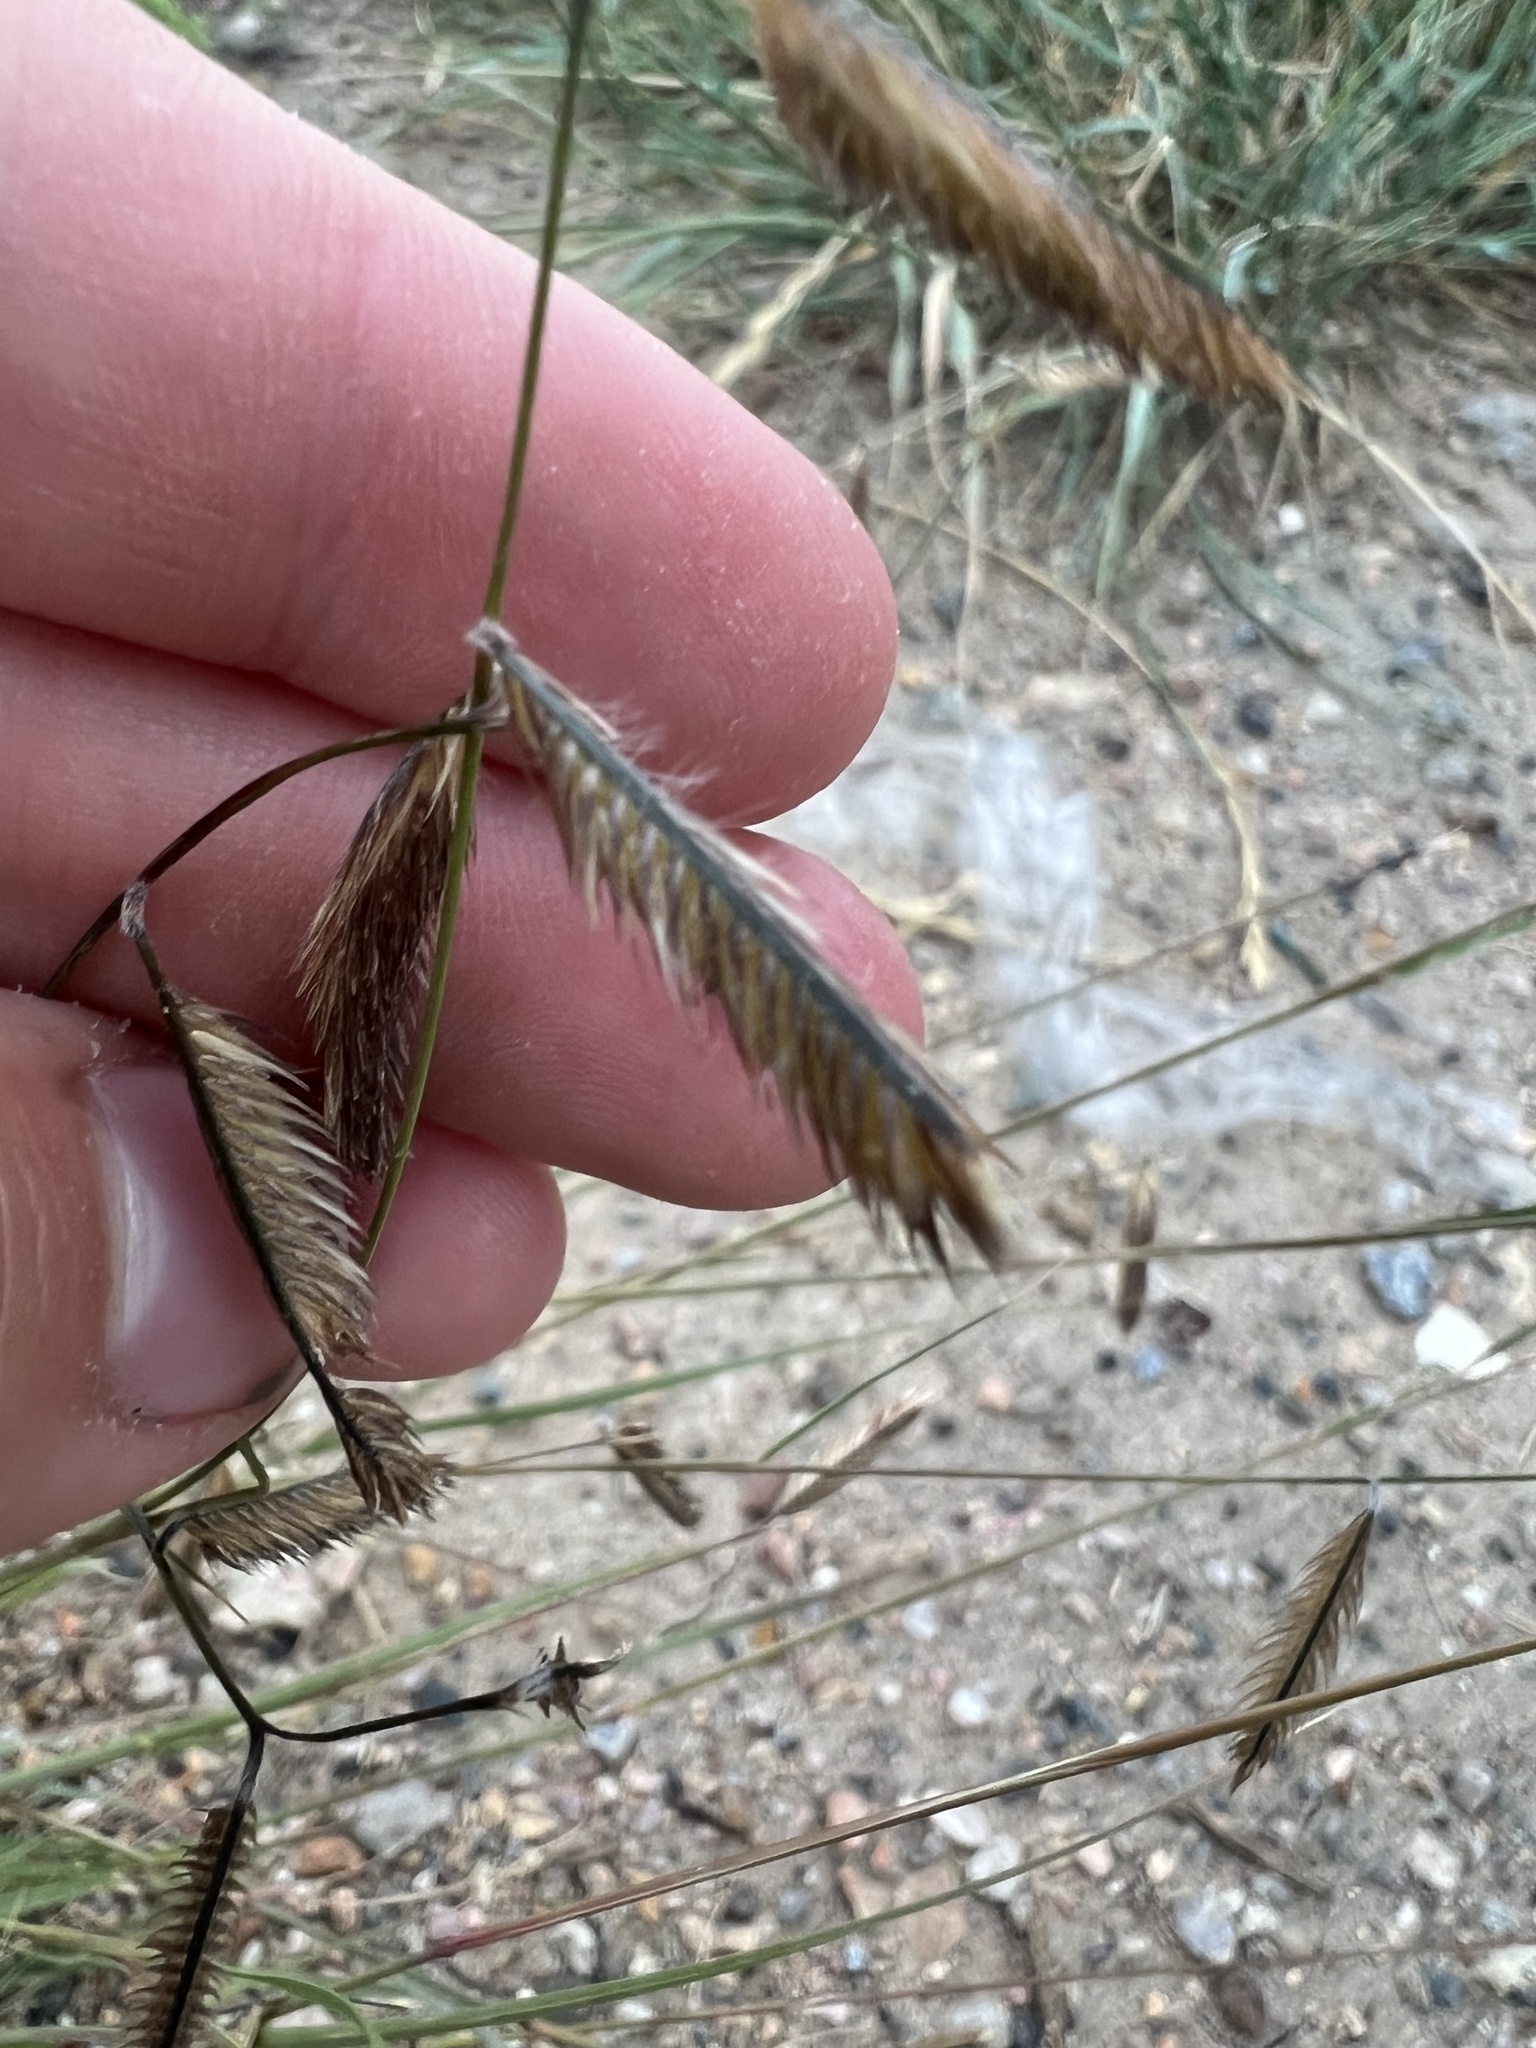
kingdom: Plantae
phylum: Tracheophyta
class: Liliopsida
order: Poales
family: Poaceae
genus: Bouteloua
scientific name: Bouteloua gracilis
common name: Blue grama
